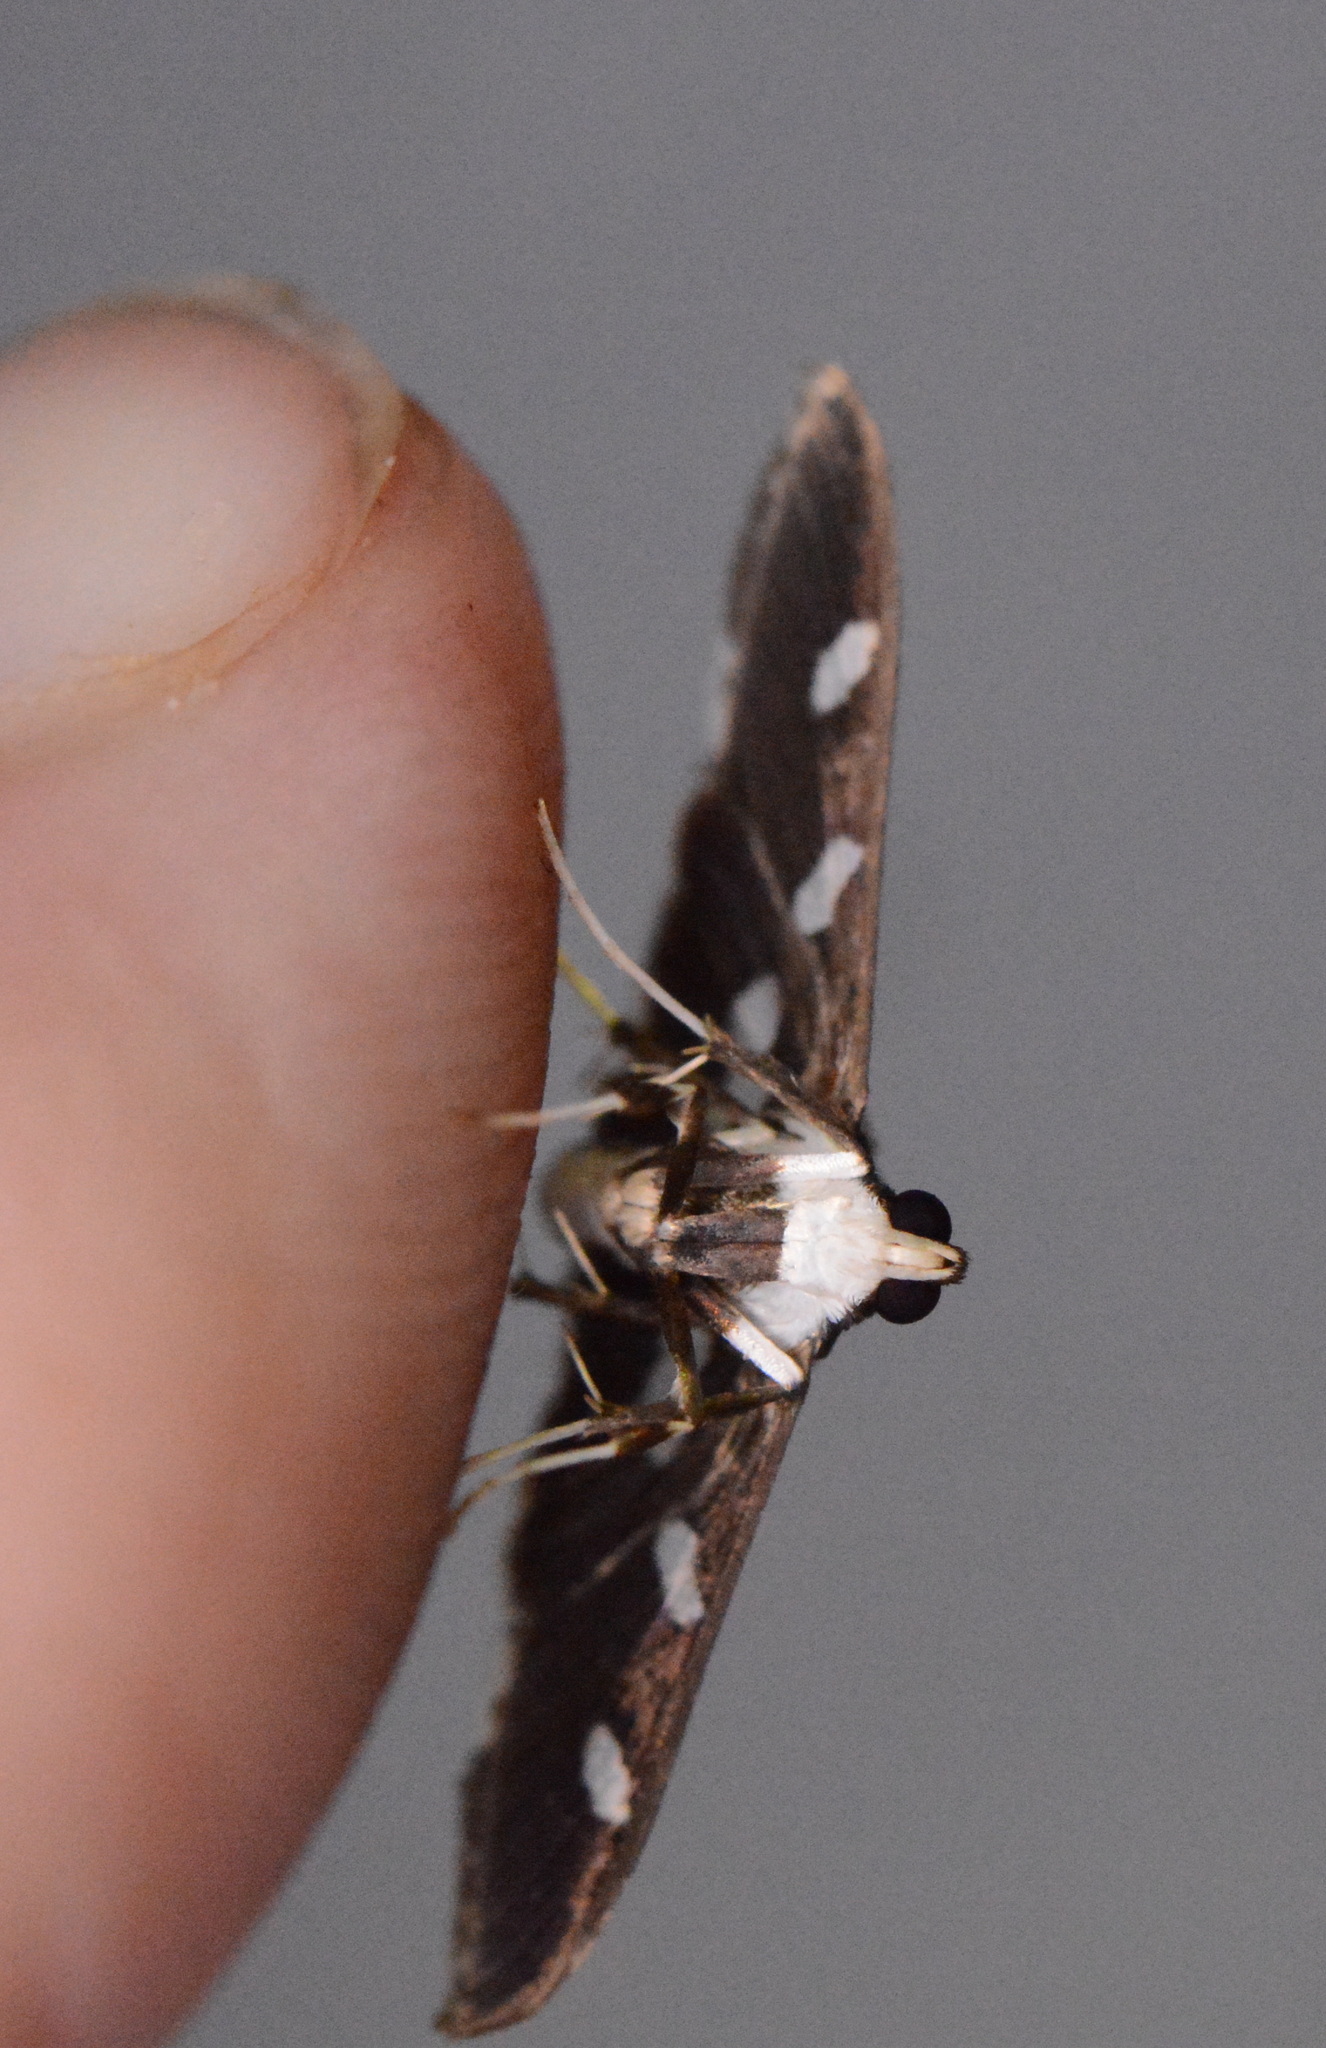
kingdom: Animalia
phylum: Arthropoda
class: Insecta
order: Lepidoptera
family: Crambidae
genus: Desmia
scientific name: Desmia funeralis
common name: Grape leaf folder moth
